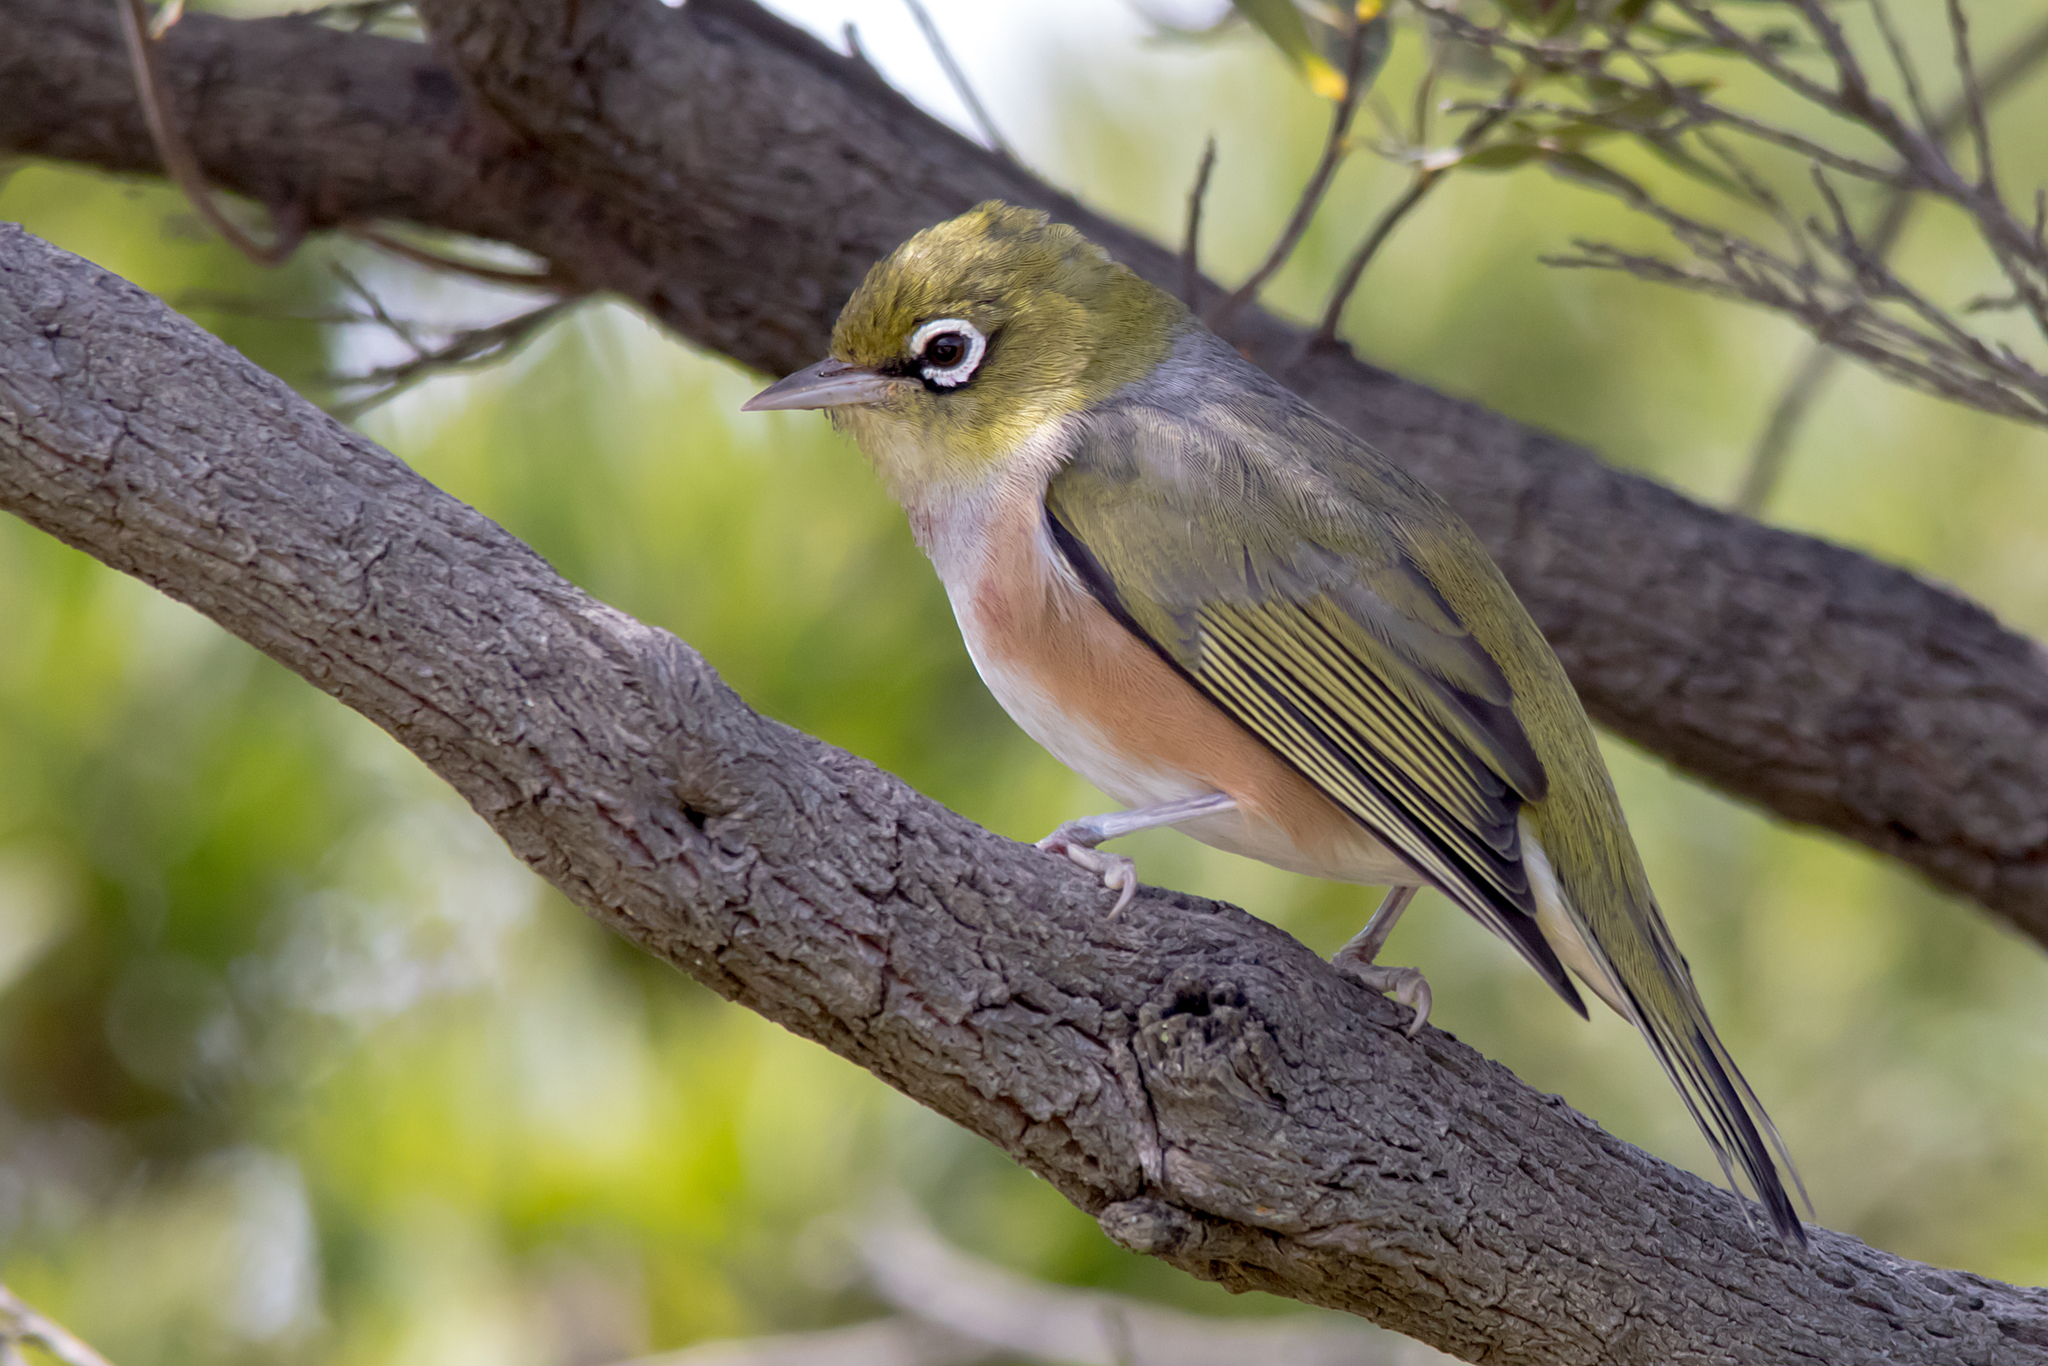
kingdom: Animalia
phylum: Chordata
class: Aves
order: Passeriformes
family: Zosteropidae
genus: Zosterops
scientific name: Zosterops lateralis
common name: Silvereye
